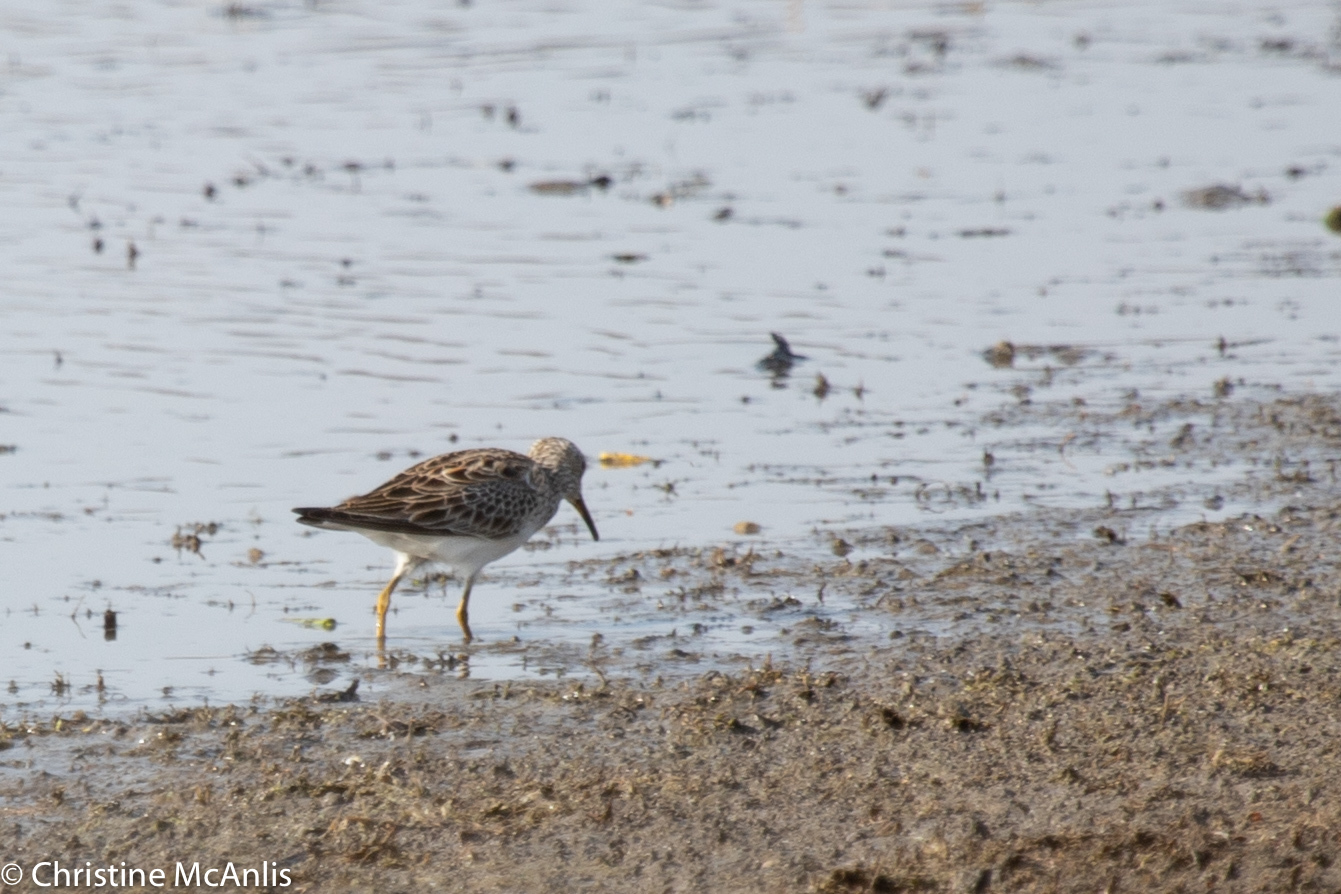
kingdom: Animalia
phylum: Chordata
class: Aves
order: Charadriiformes
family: Scolopacidae
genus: Calidris
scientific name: Calidris melanotos
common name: Pectoral sandpiper
